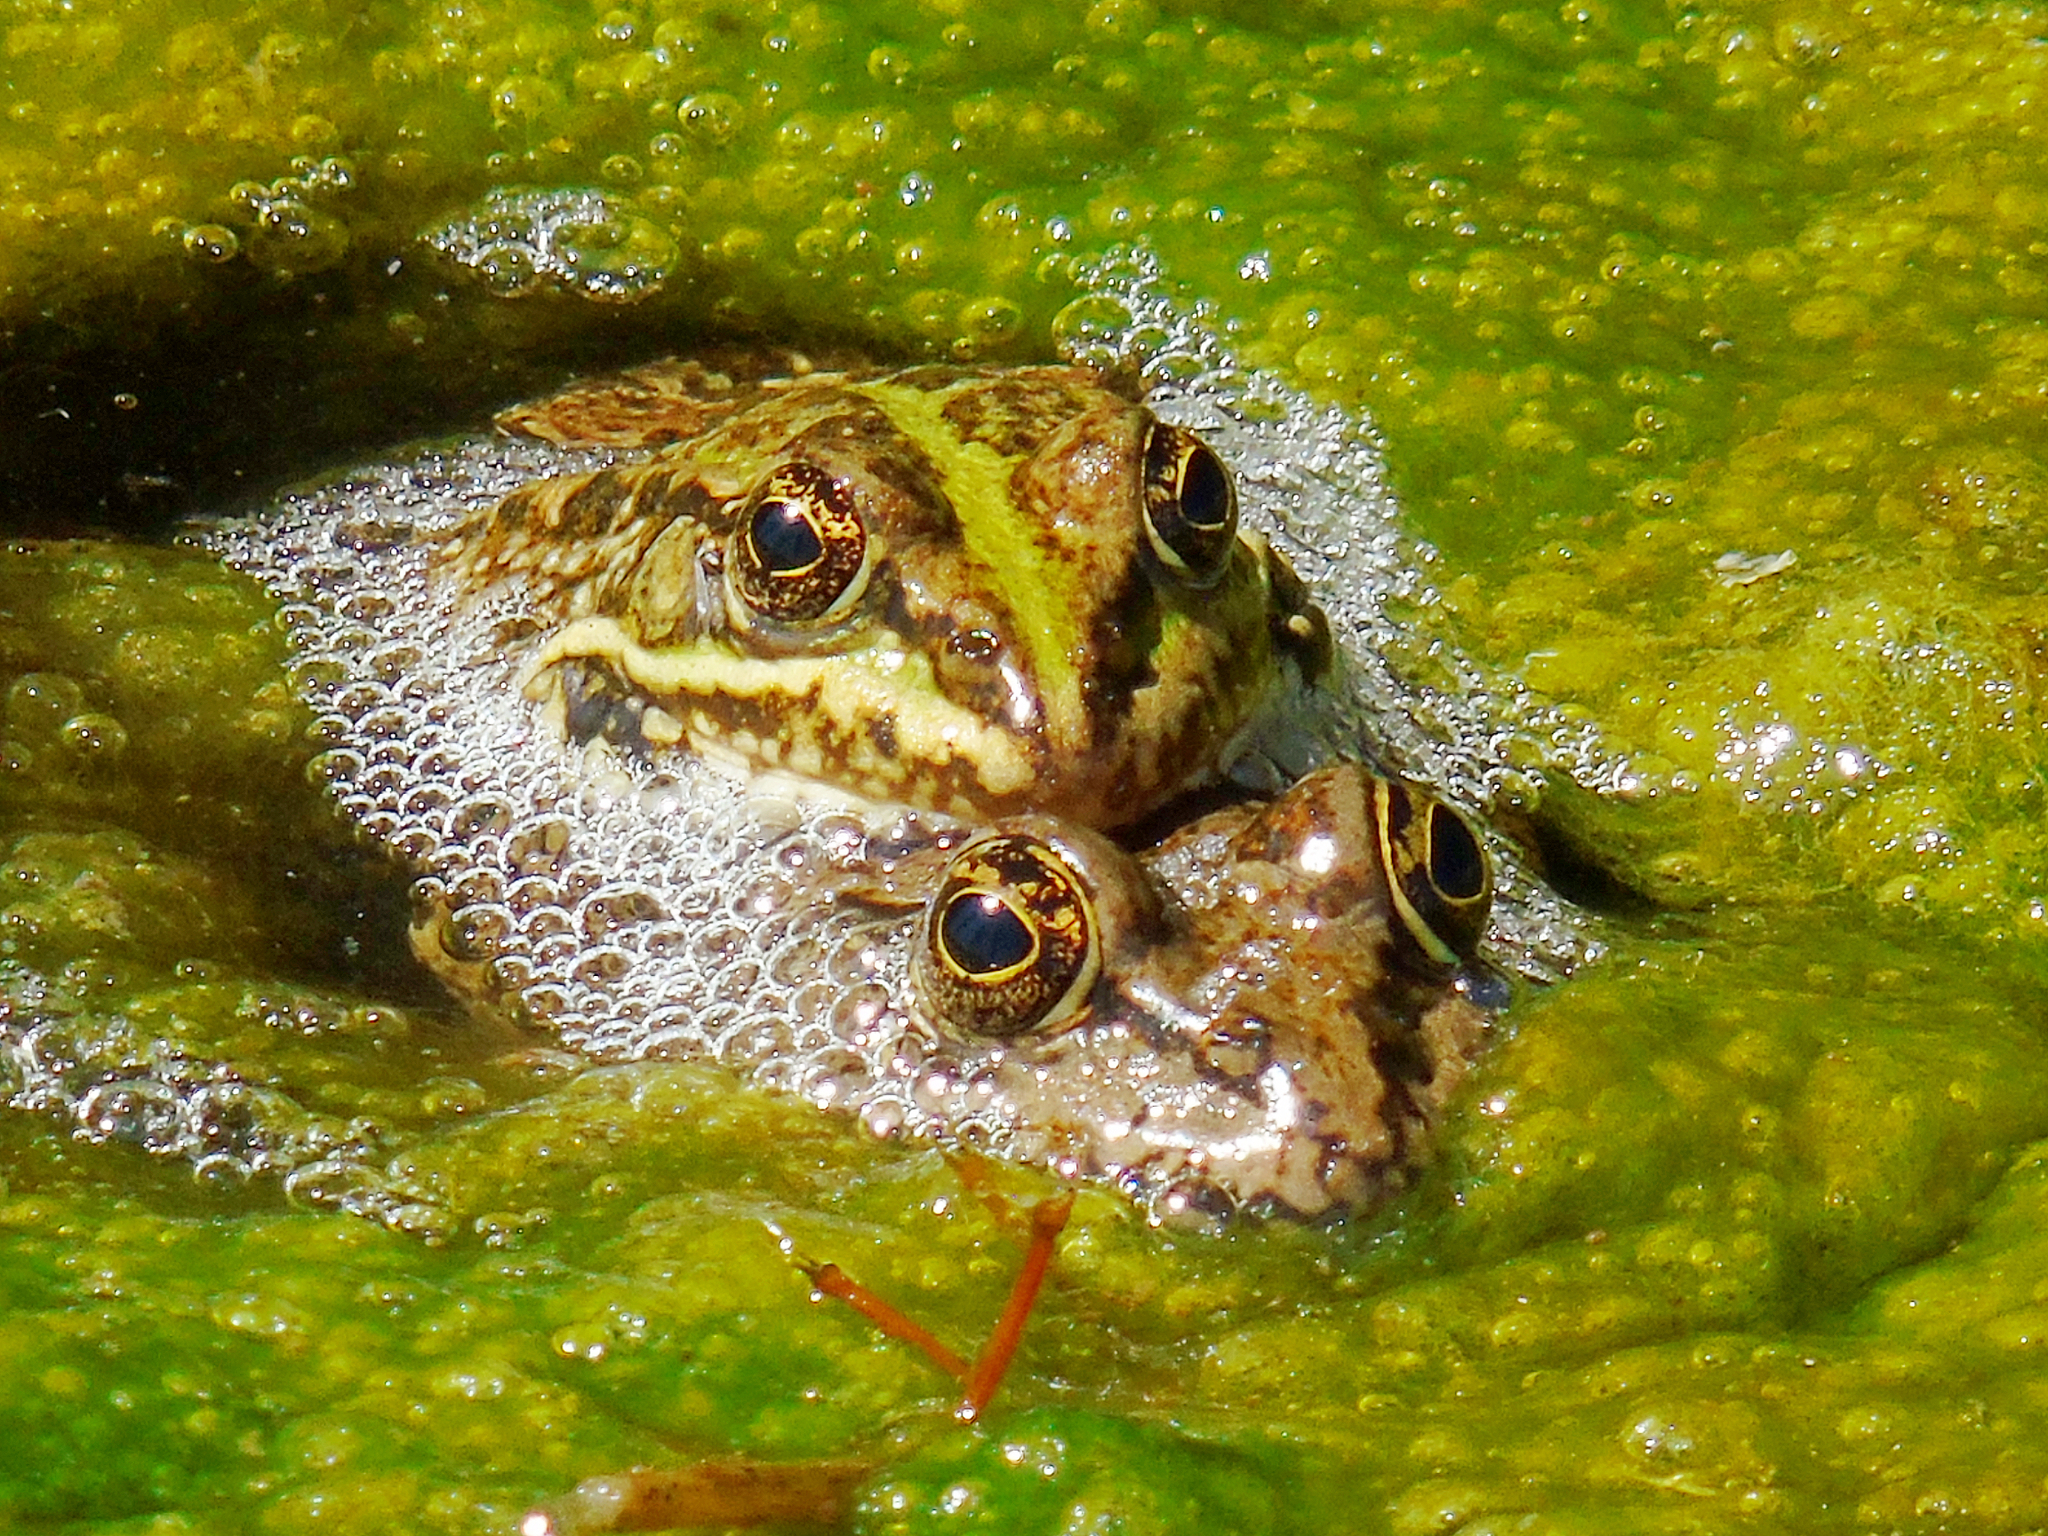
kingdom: Animalia
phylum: Chordata
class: Amphibia
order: Anura
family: Ranidae
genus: Pelophylax
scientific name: Pelophylax ridibundus
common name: Marsh frog
